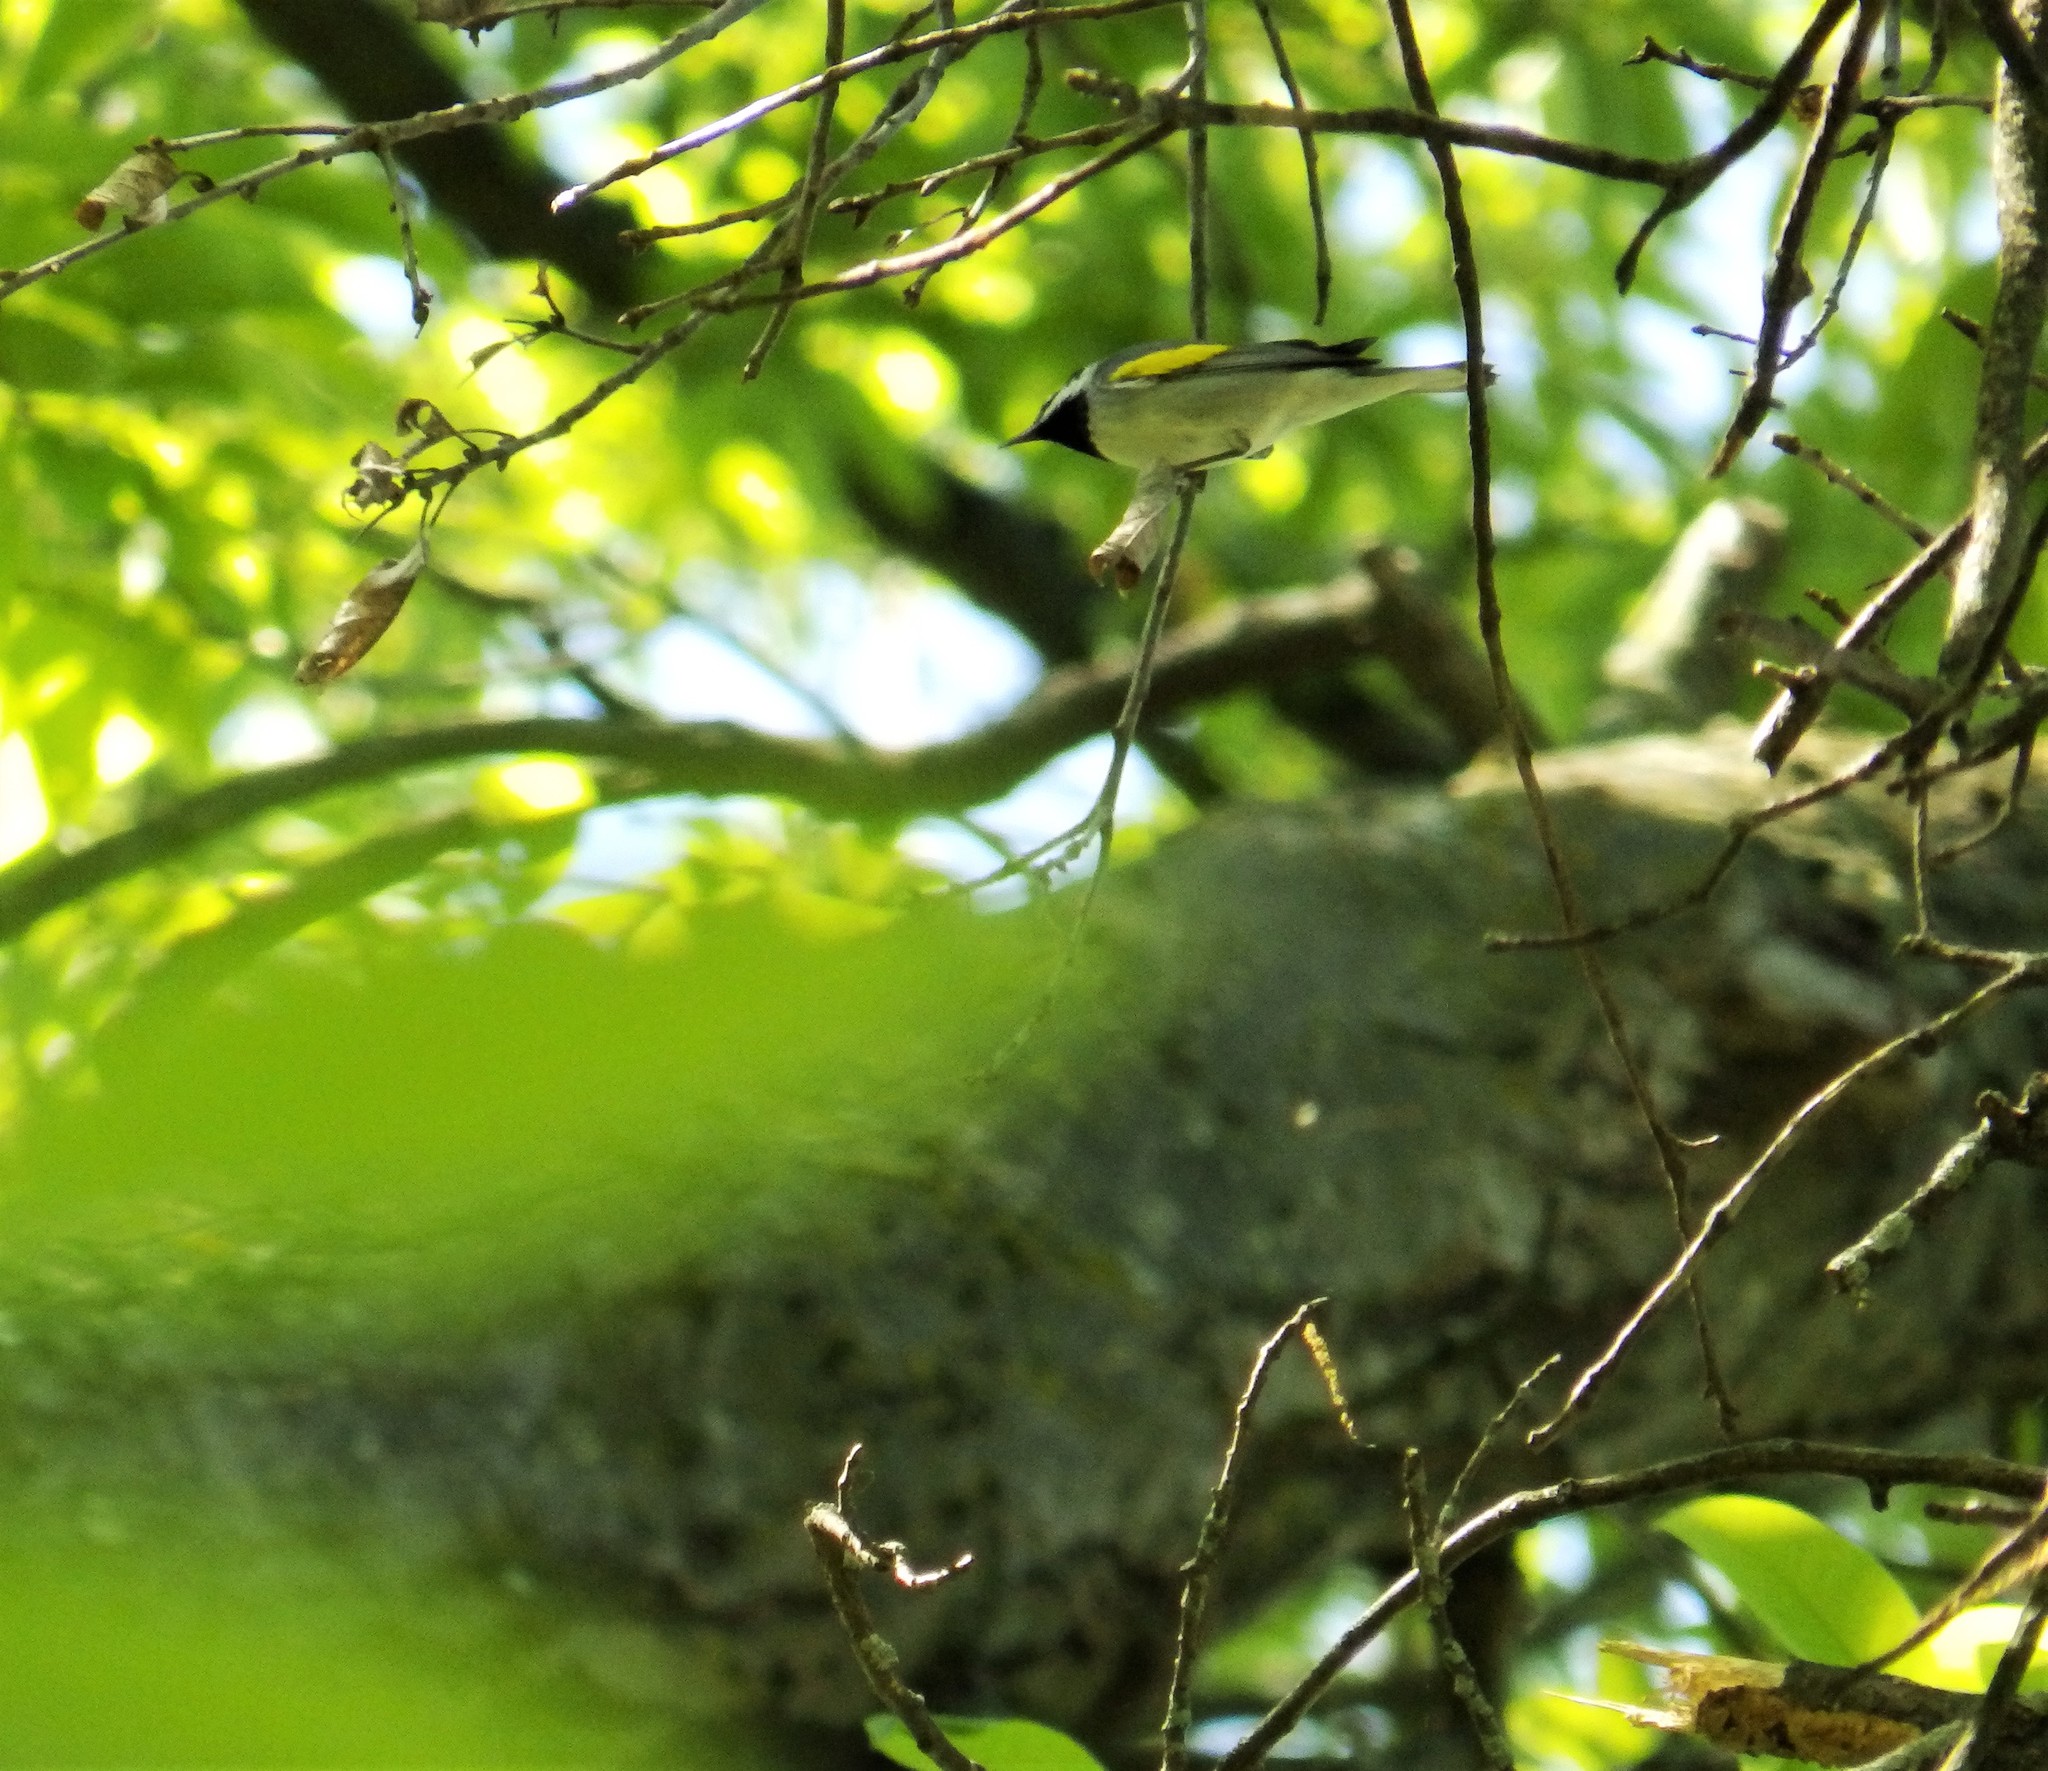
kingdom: Animalia
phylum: Chordata
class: Aves
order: Passeriformes
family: Parulidae
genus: Vermivora
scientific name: Vermivora chrysoptera
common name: Golden-winged warbler
